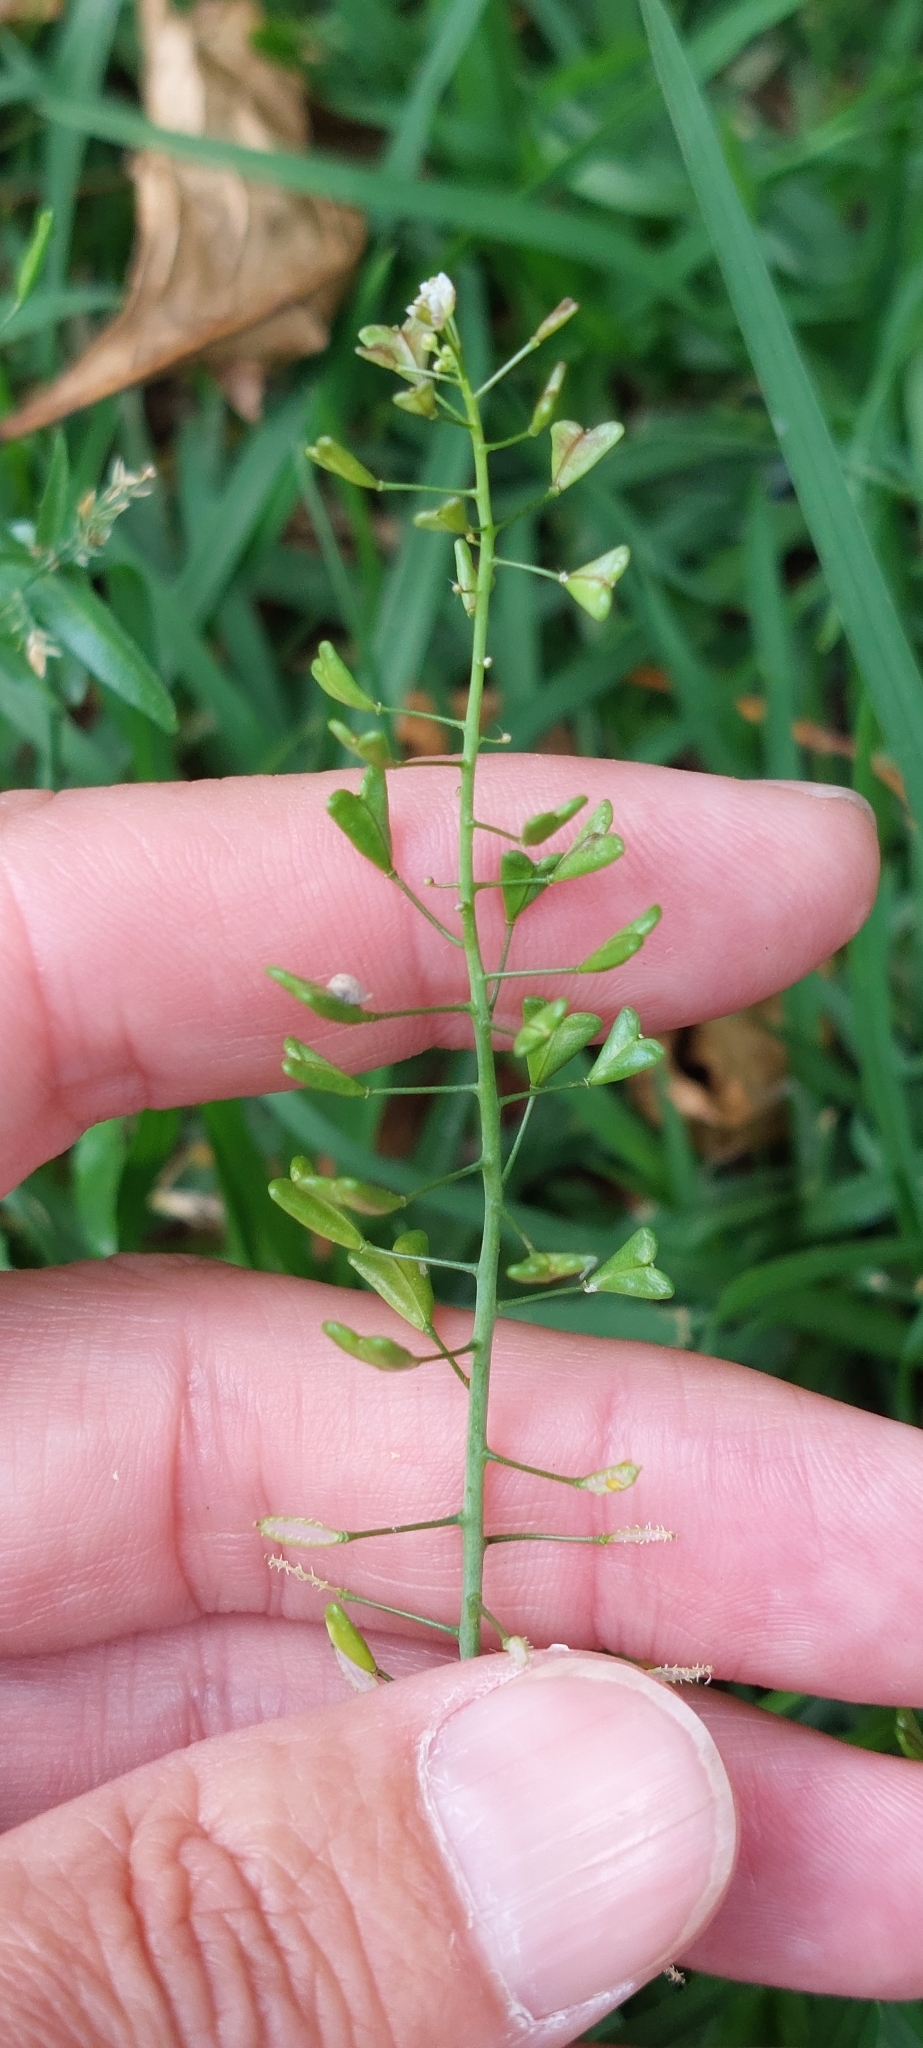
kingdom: Plantae
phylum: Tracheophyta
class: Magnoliopsida
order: Brassicales
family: Brassicaceae
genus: Capsella
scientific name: Capsella bursa-pastoris
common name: Shepherd's purse
